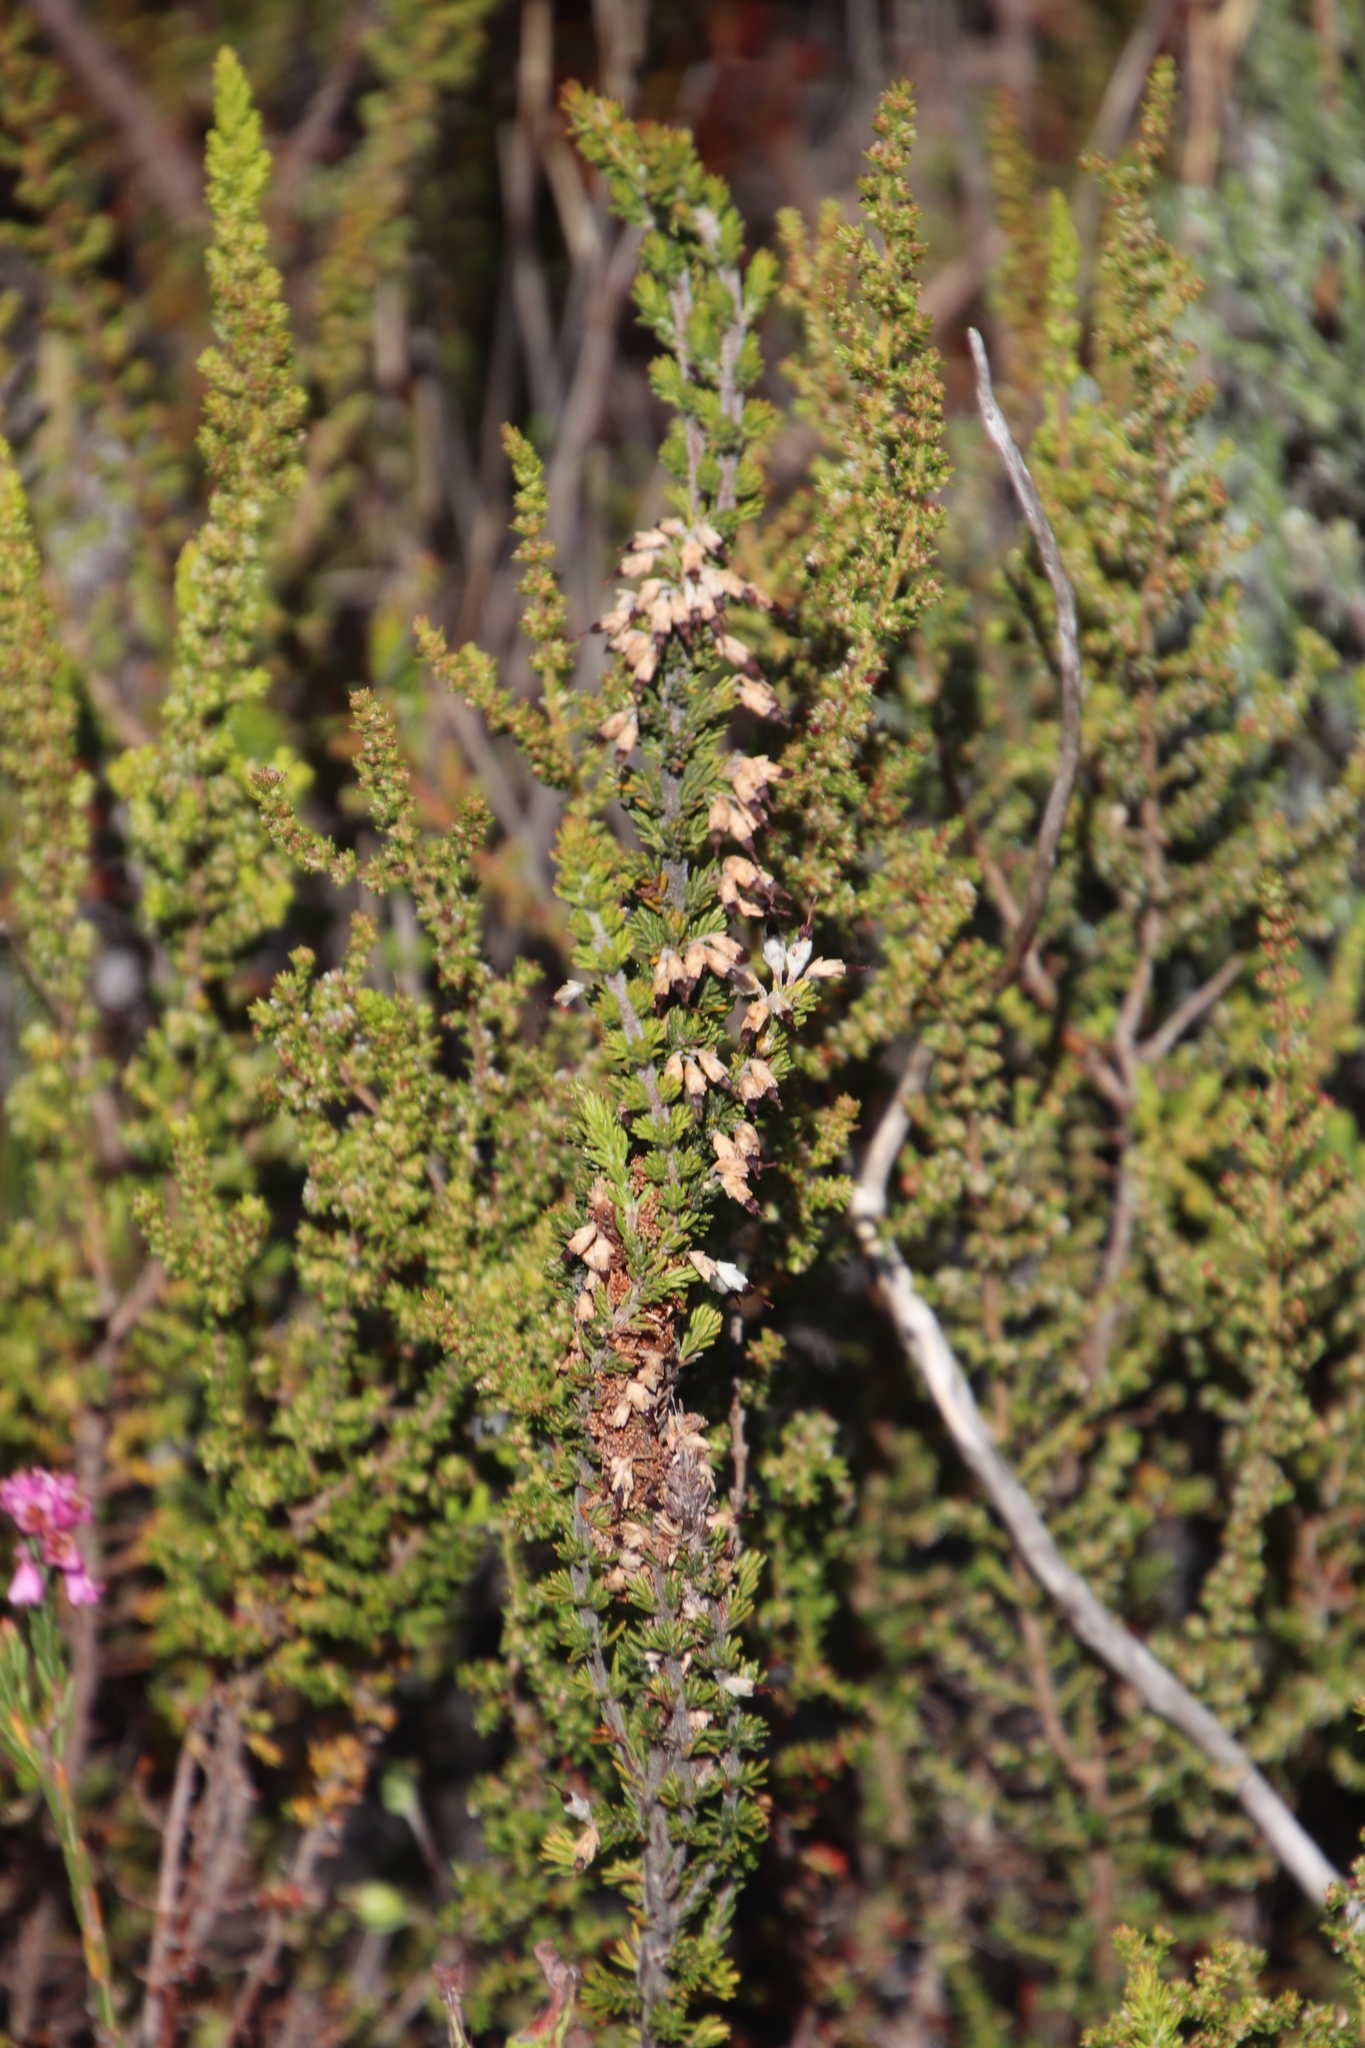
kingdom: Plantae
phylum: Tracheophyta
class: Magnoliopsida
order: Ericales
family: Ericaceae
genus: Erica
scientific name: Erica imbricata
